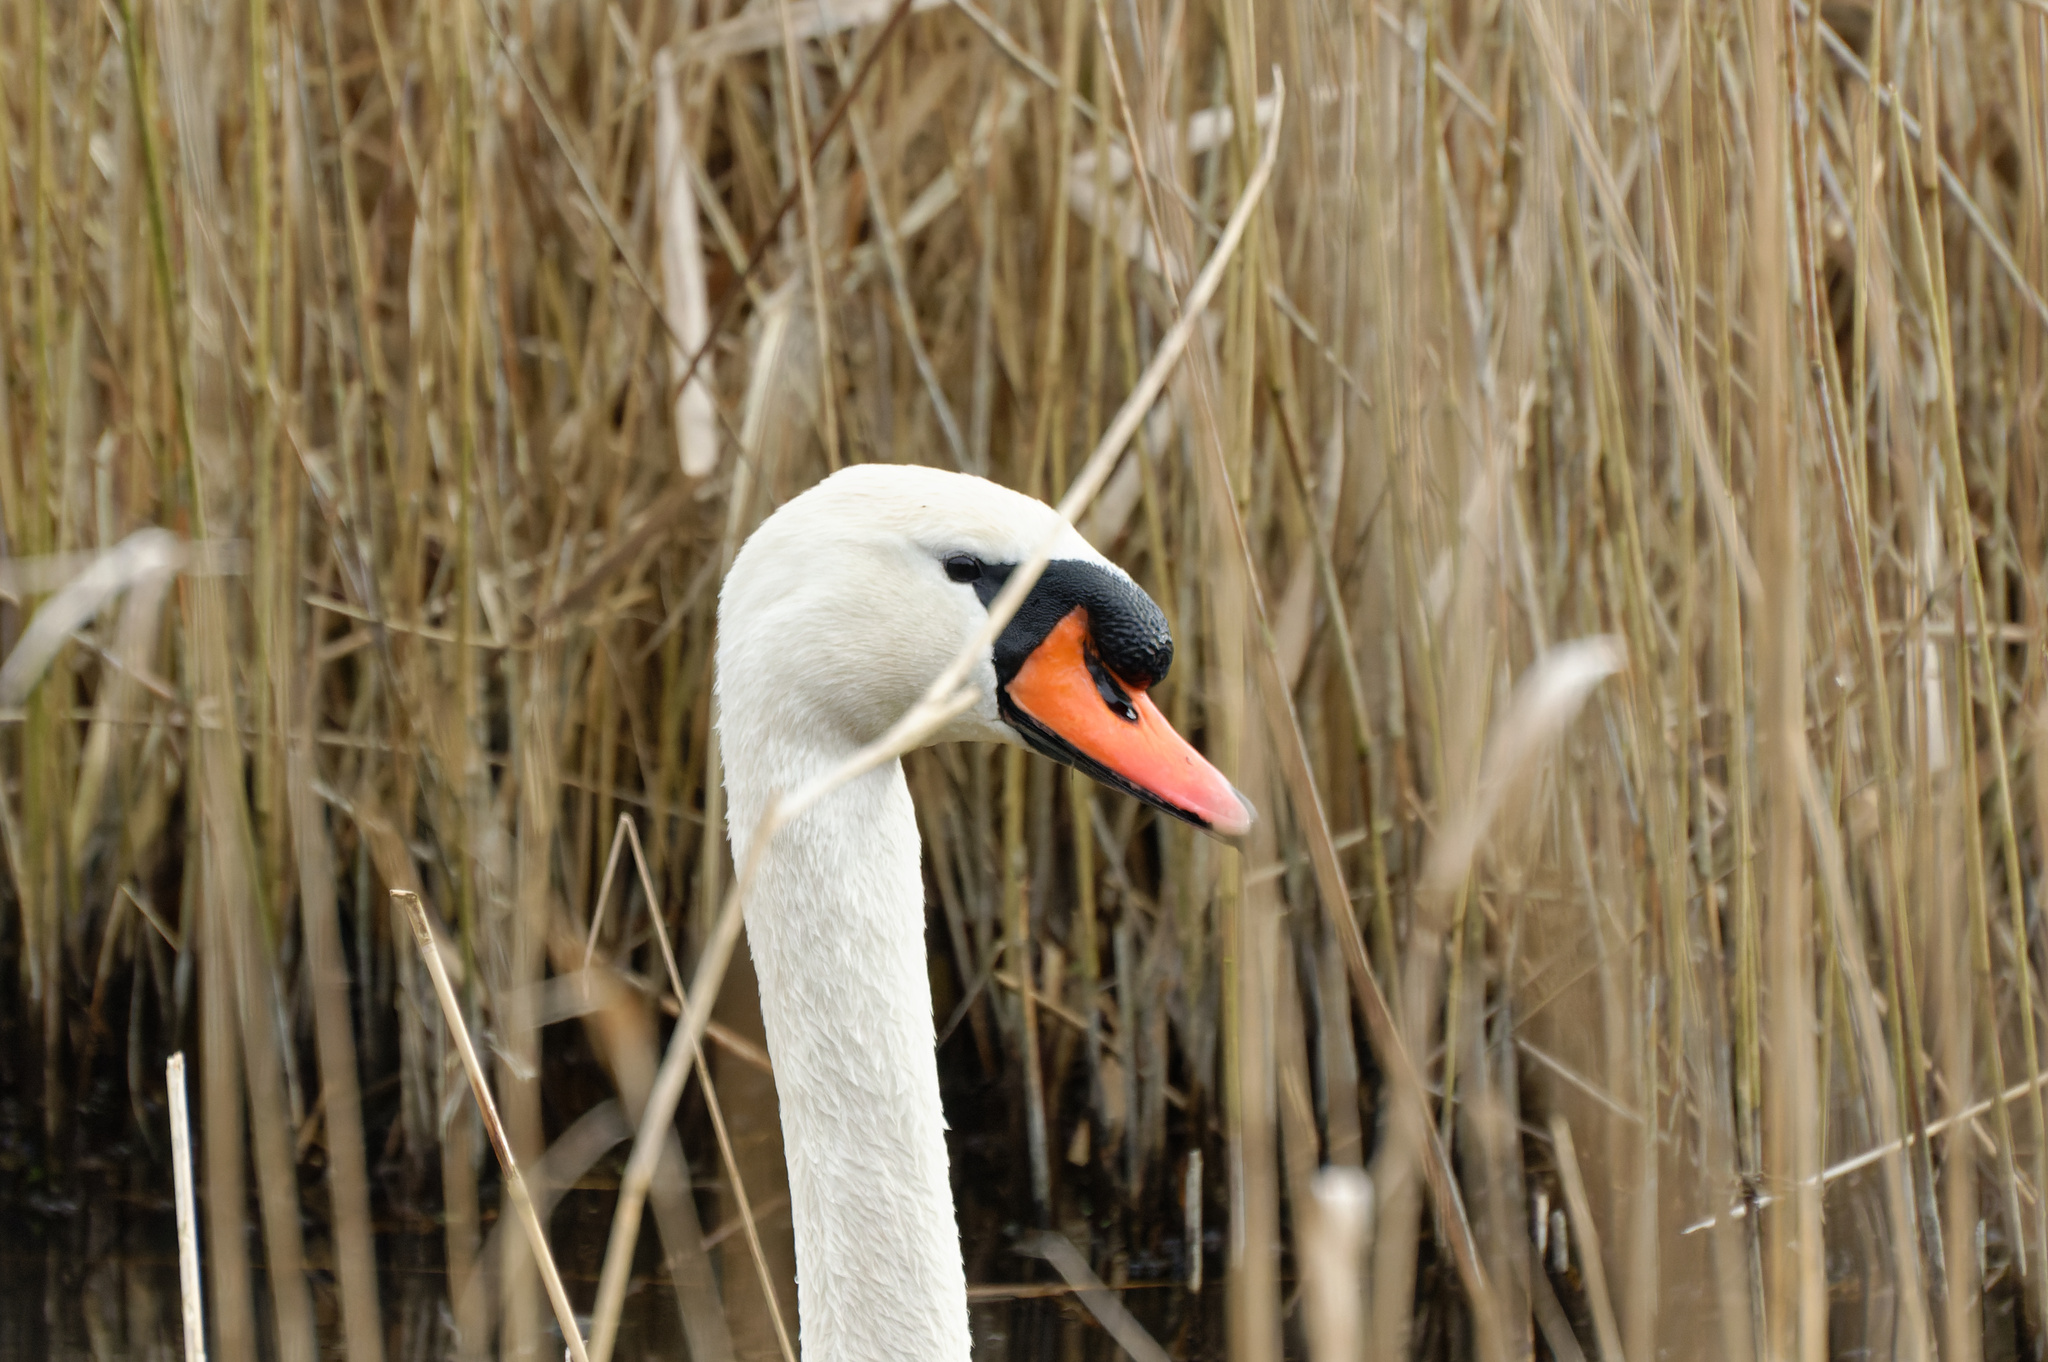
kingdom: Animalia
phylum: Chordata
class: Aves
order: Anseriformes
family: Anatidae
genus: Cygnus
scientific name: Cygnus olor
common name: Mute swan
